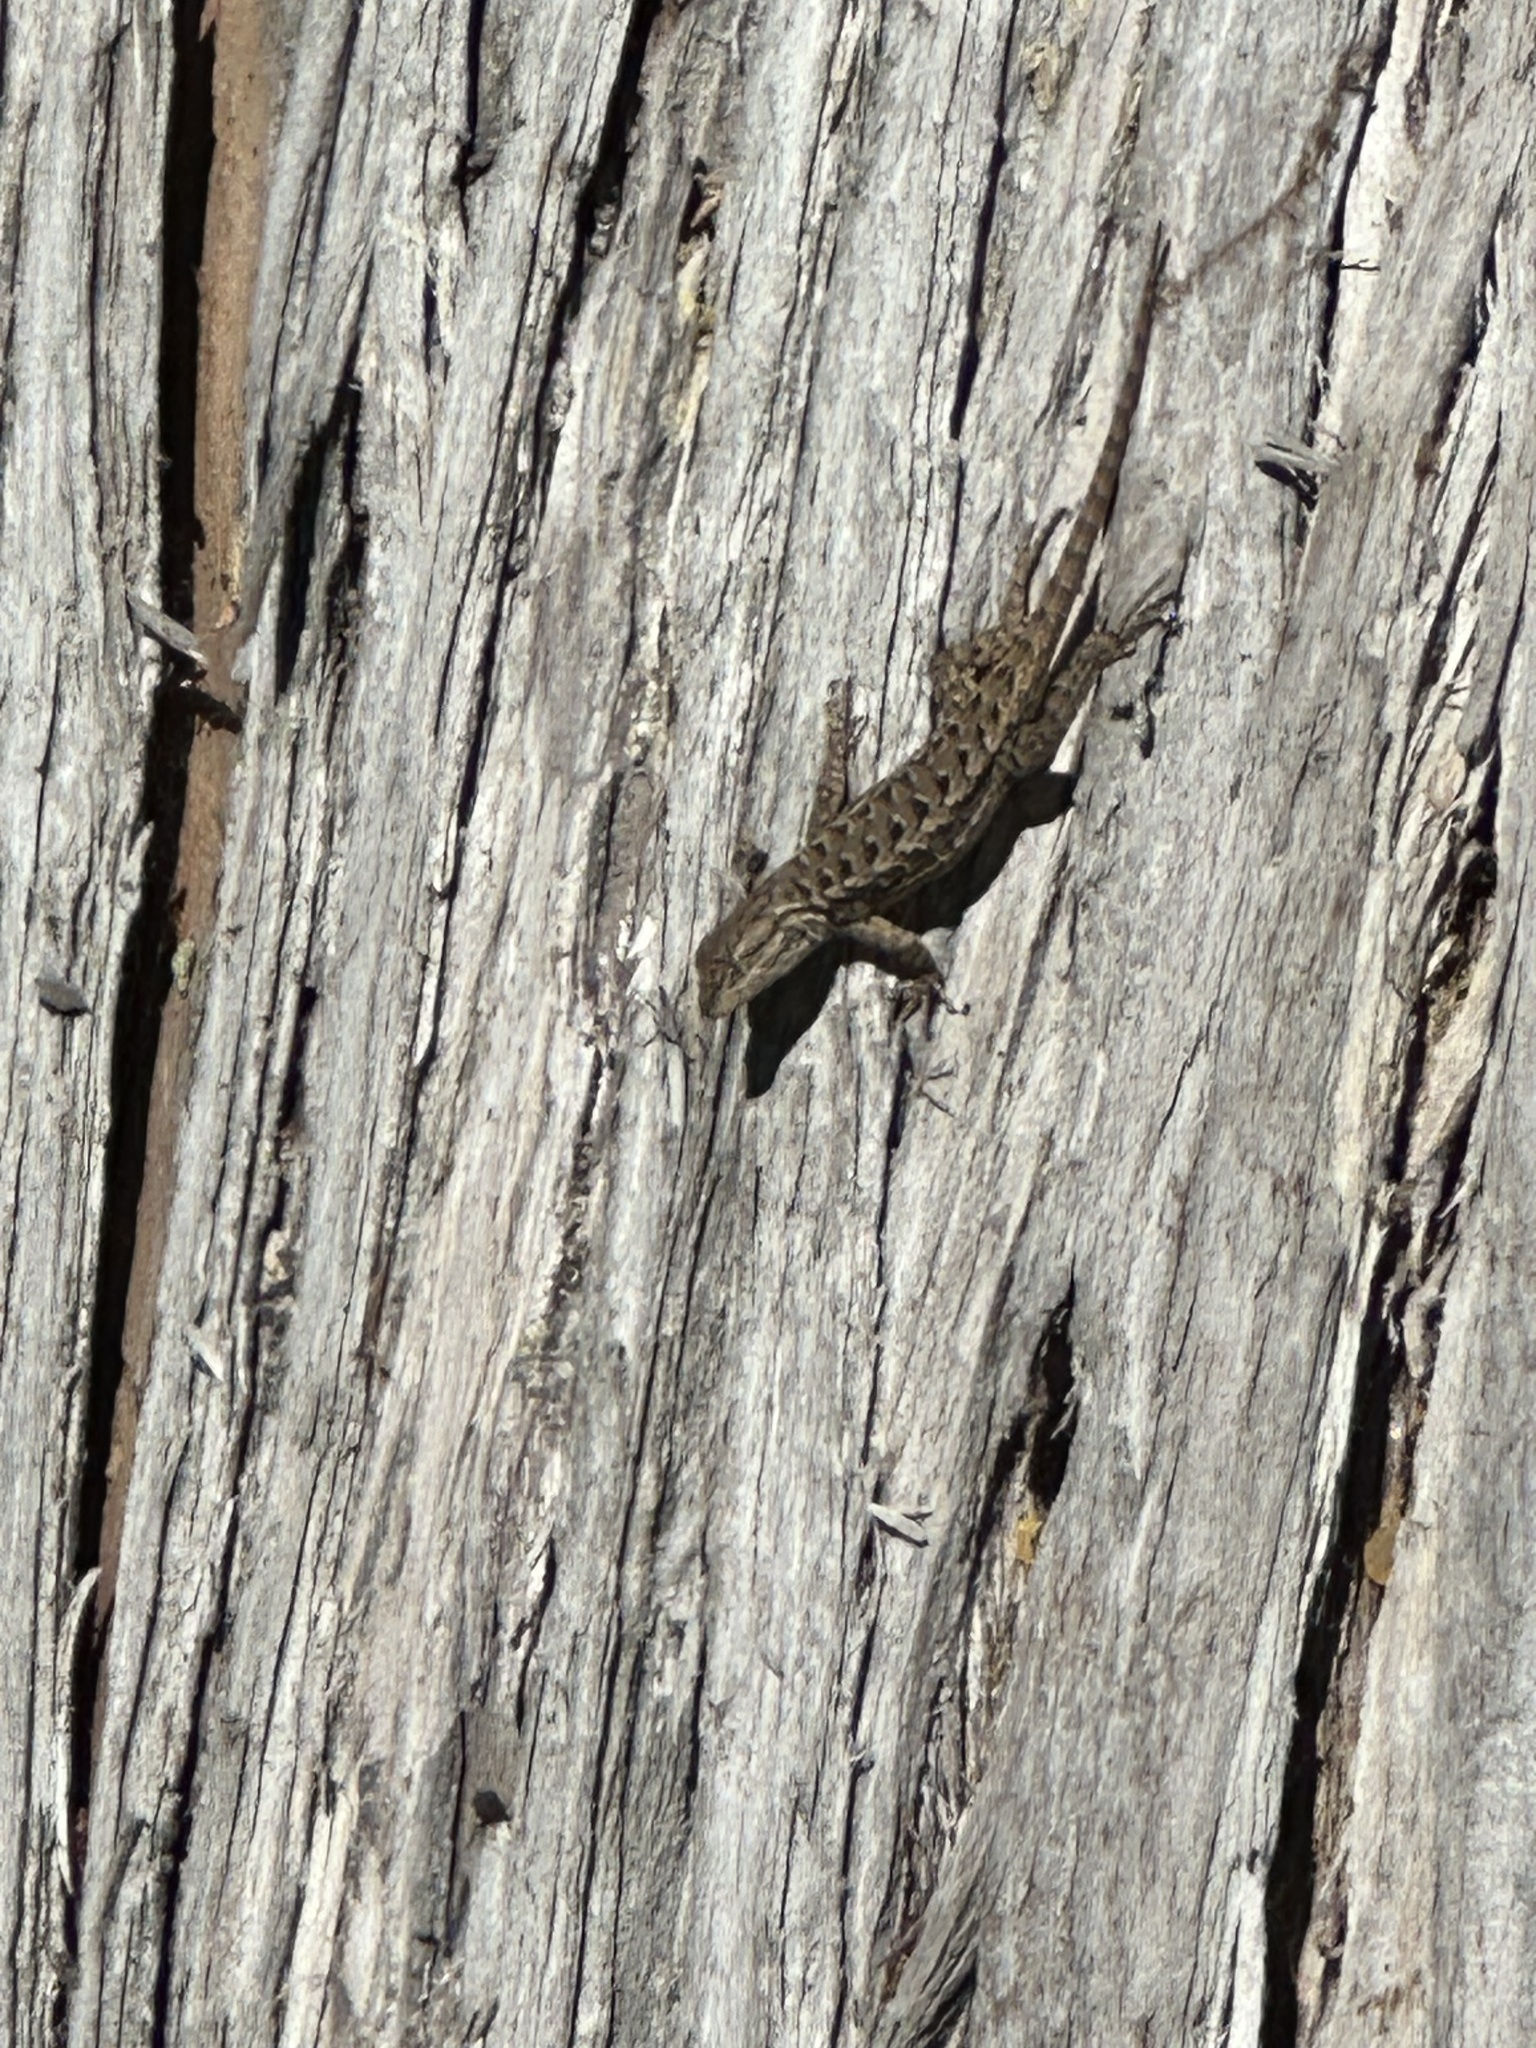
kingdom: Animalia
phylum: Chordata
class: Squamata
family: Phrynosomatidae
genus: Sceloporus
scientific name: Sceloporus occidentalis
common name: Western fence lizard
